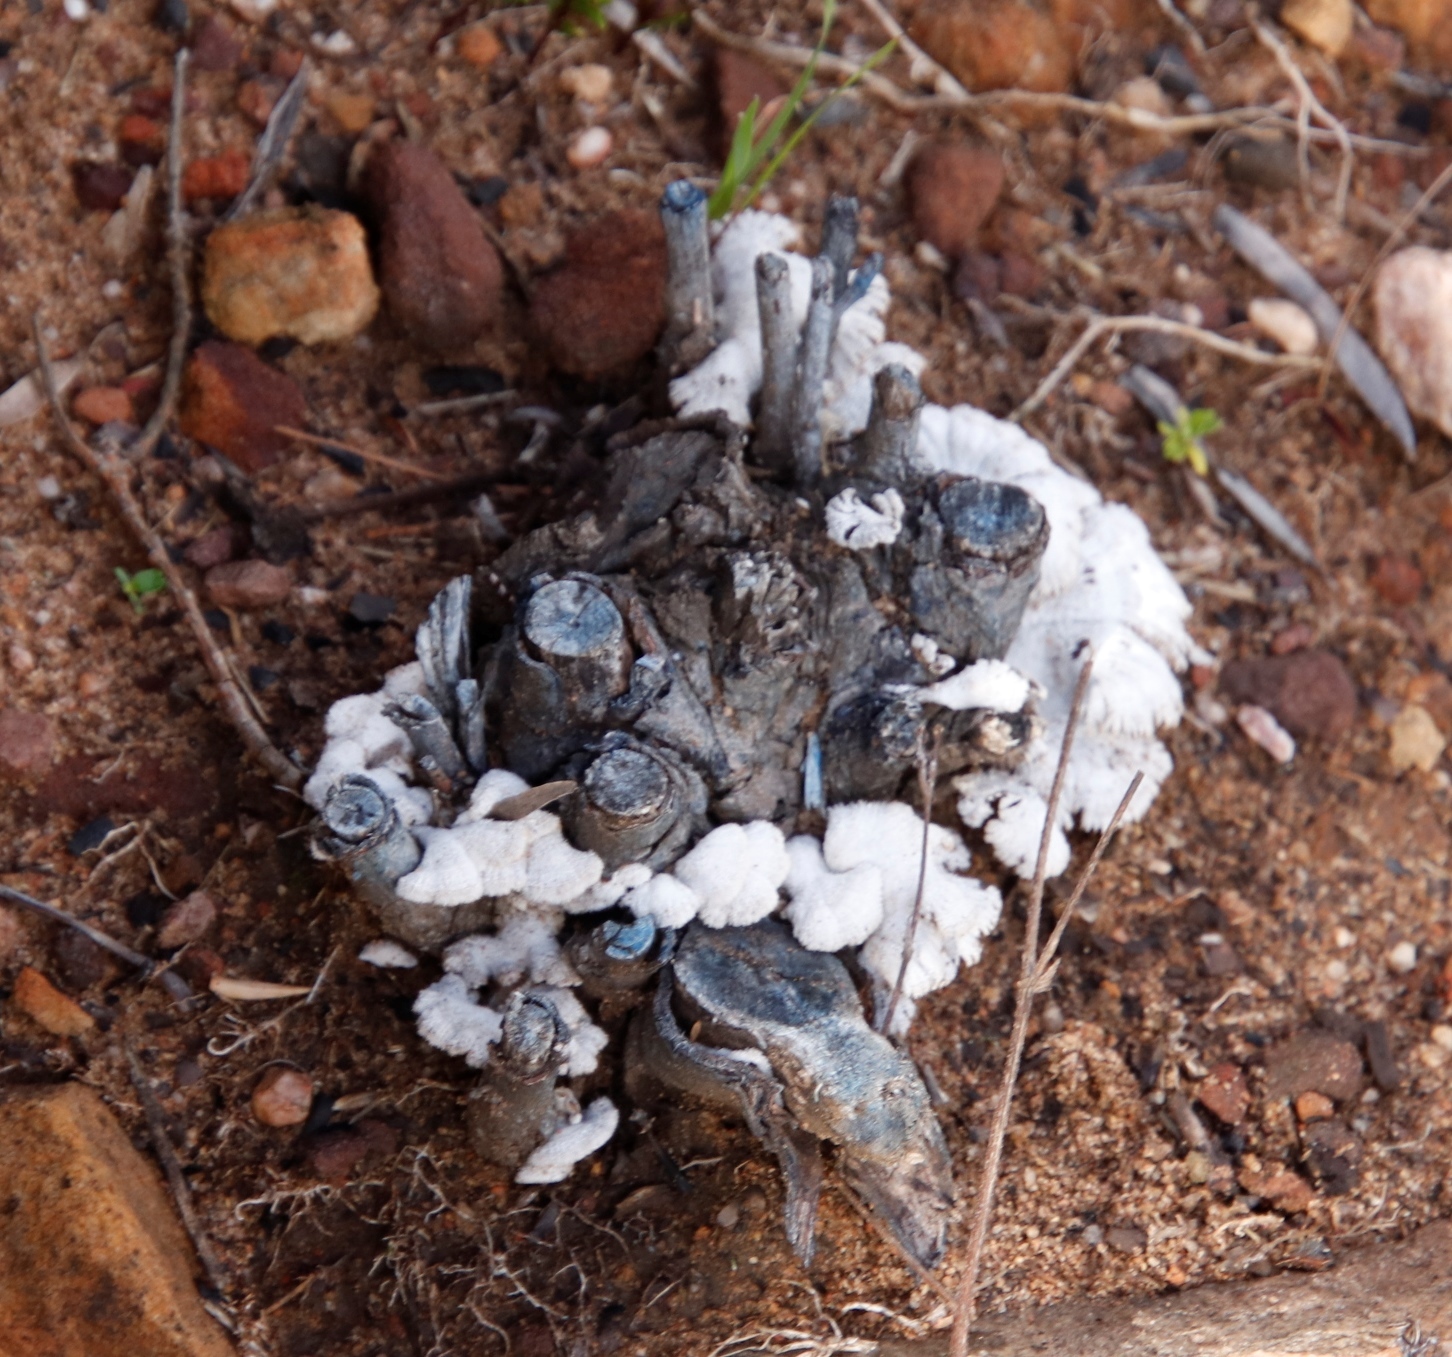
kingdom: Fungi
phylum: Basidiomycota
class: Agaricomycetes
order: Agaricales
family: Schizophyllaceae
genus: Schizophyllum
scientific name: Schizophyllum commune
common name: Common porecrust
